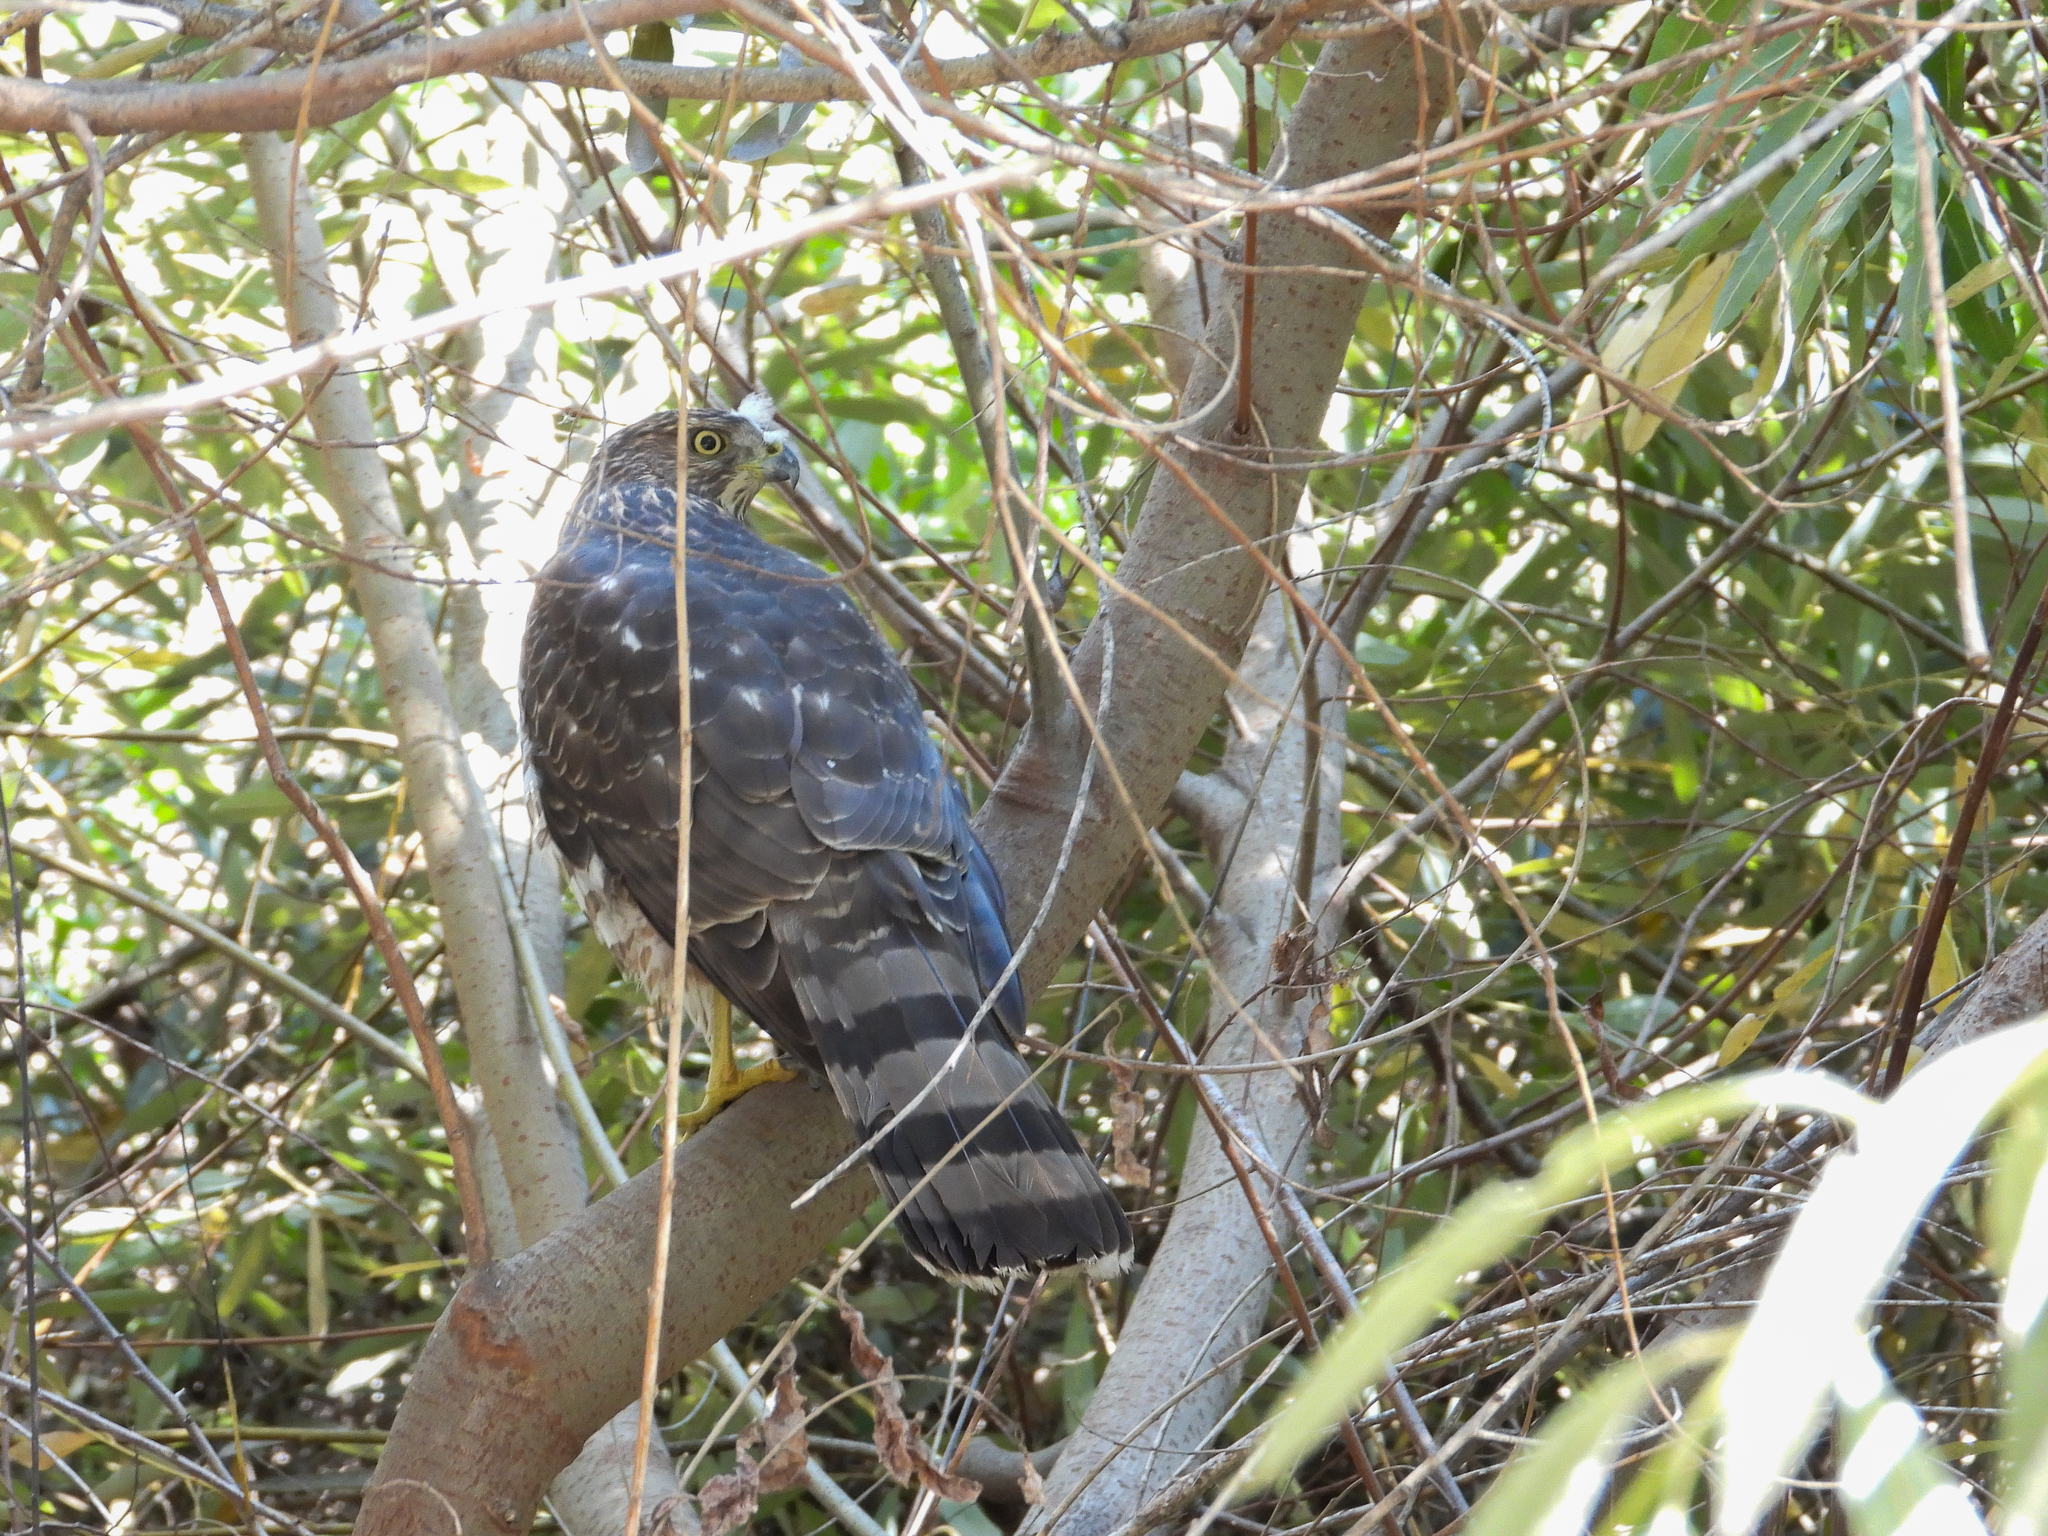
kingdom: Animalia
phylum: Chordata
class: Aves
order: Accipitriformes
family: Accipitridae
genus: Accipiter
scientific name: Accipiter cooperii
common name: Cooper's hawk
